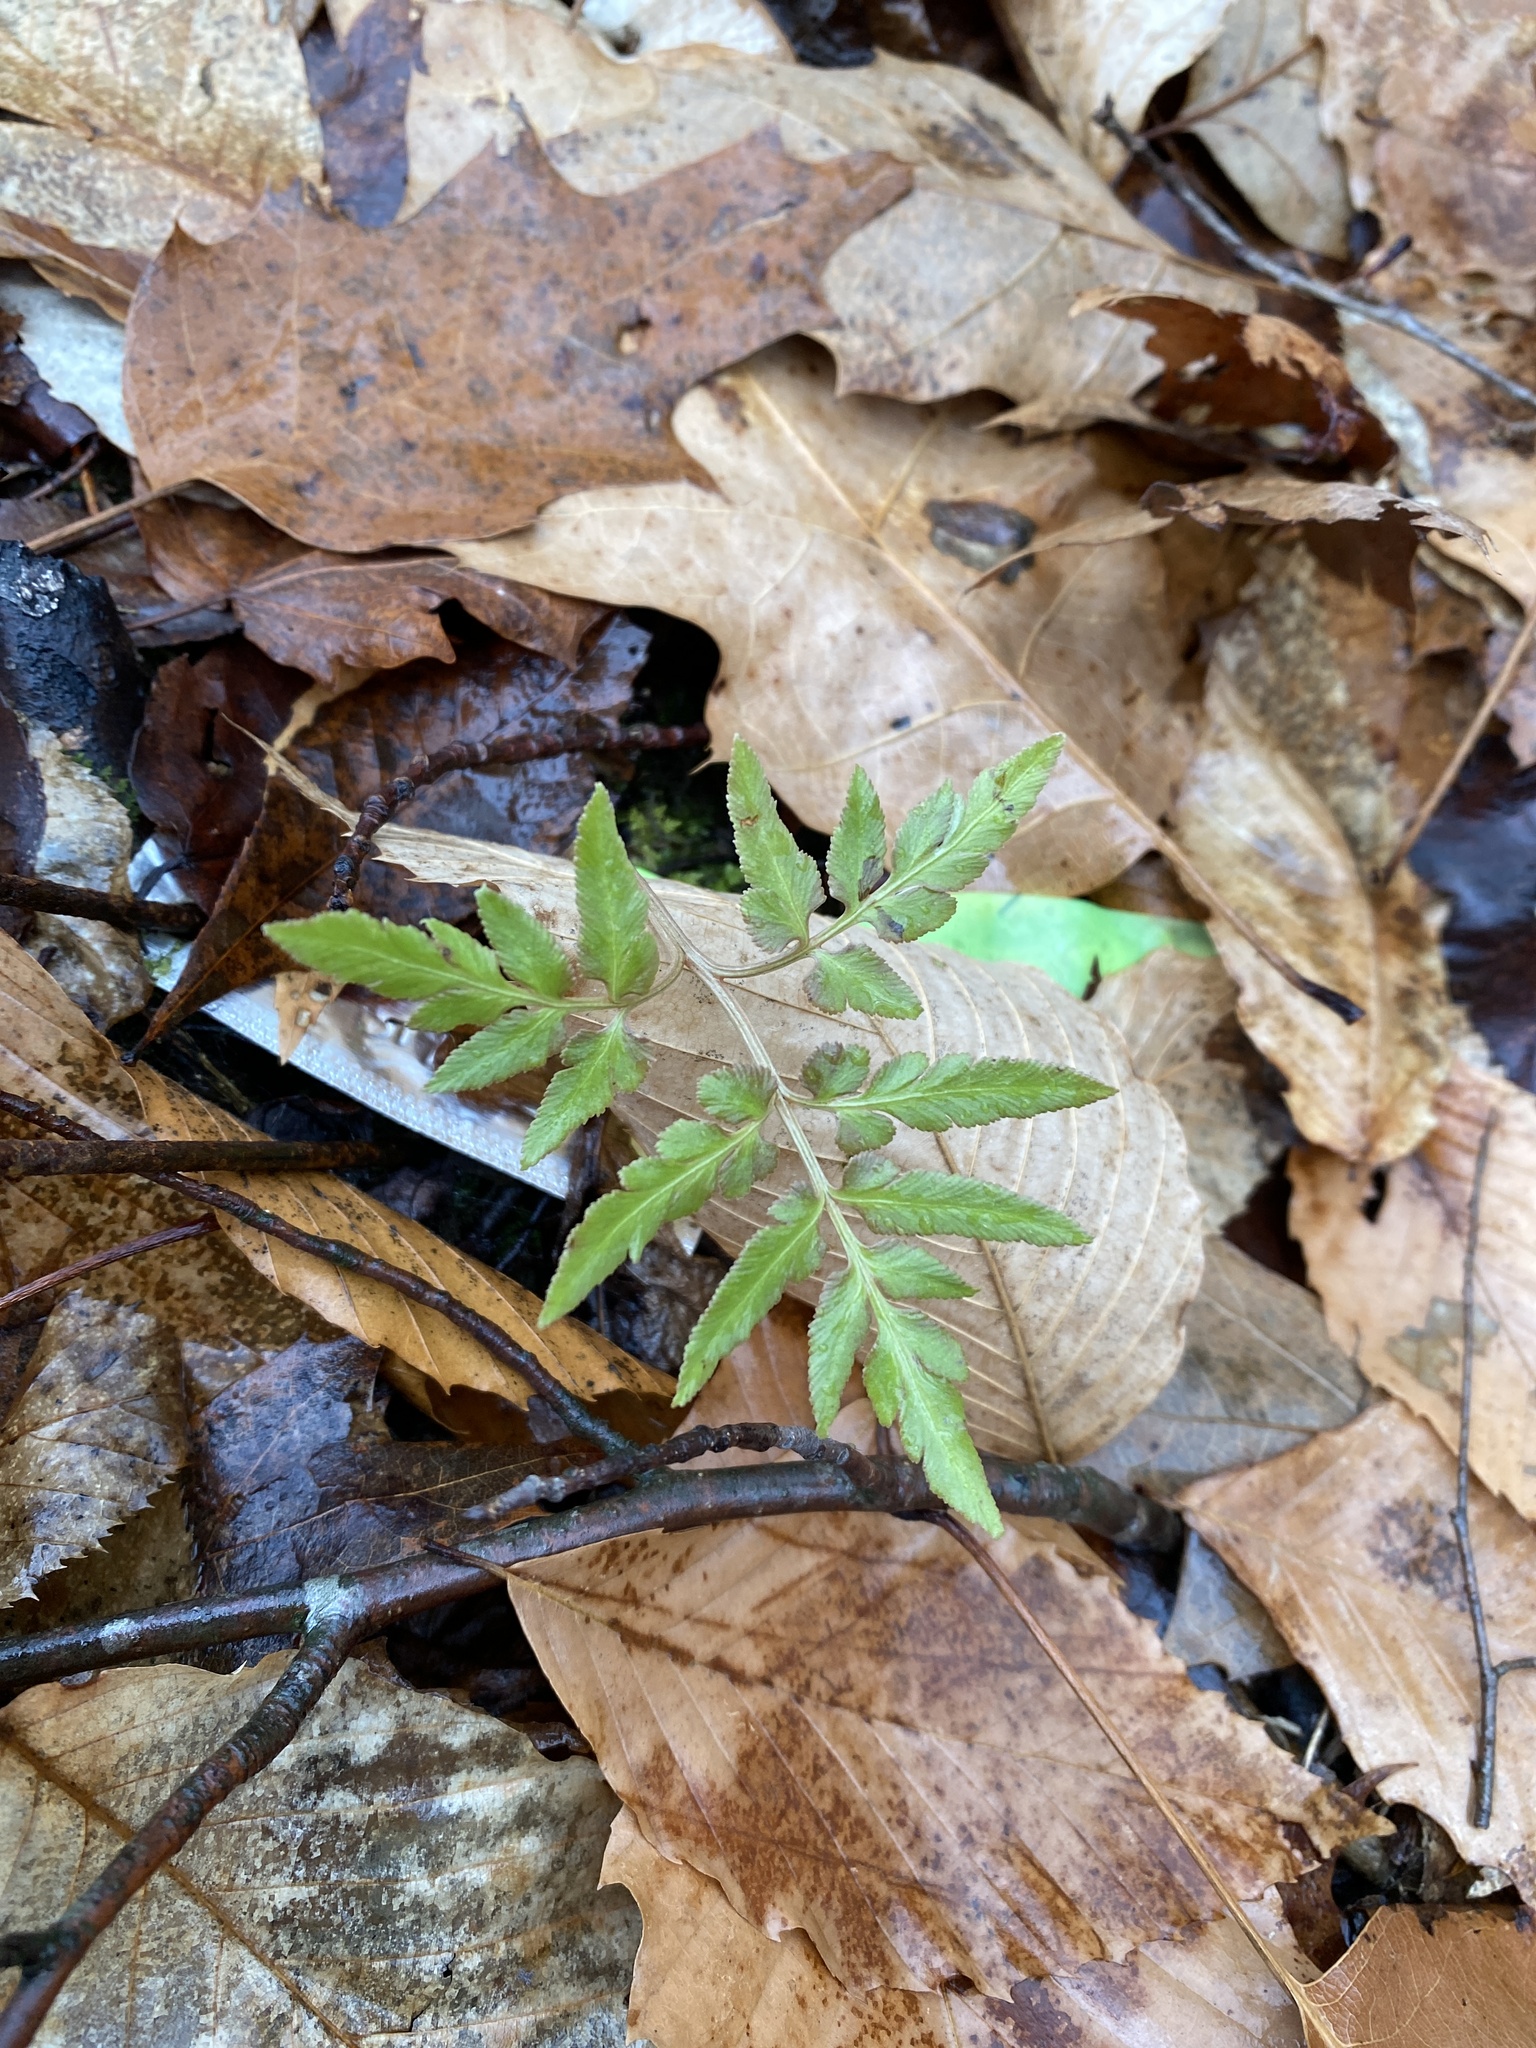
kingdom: Plantae
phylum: Tracheophyta
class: Polypodiopsida
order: Ophioglossales
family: Ophioglossaceae
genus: Sceptridium
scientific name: Sceptridium dissectum
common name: Cut-leaved grapefern
